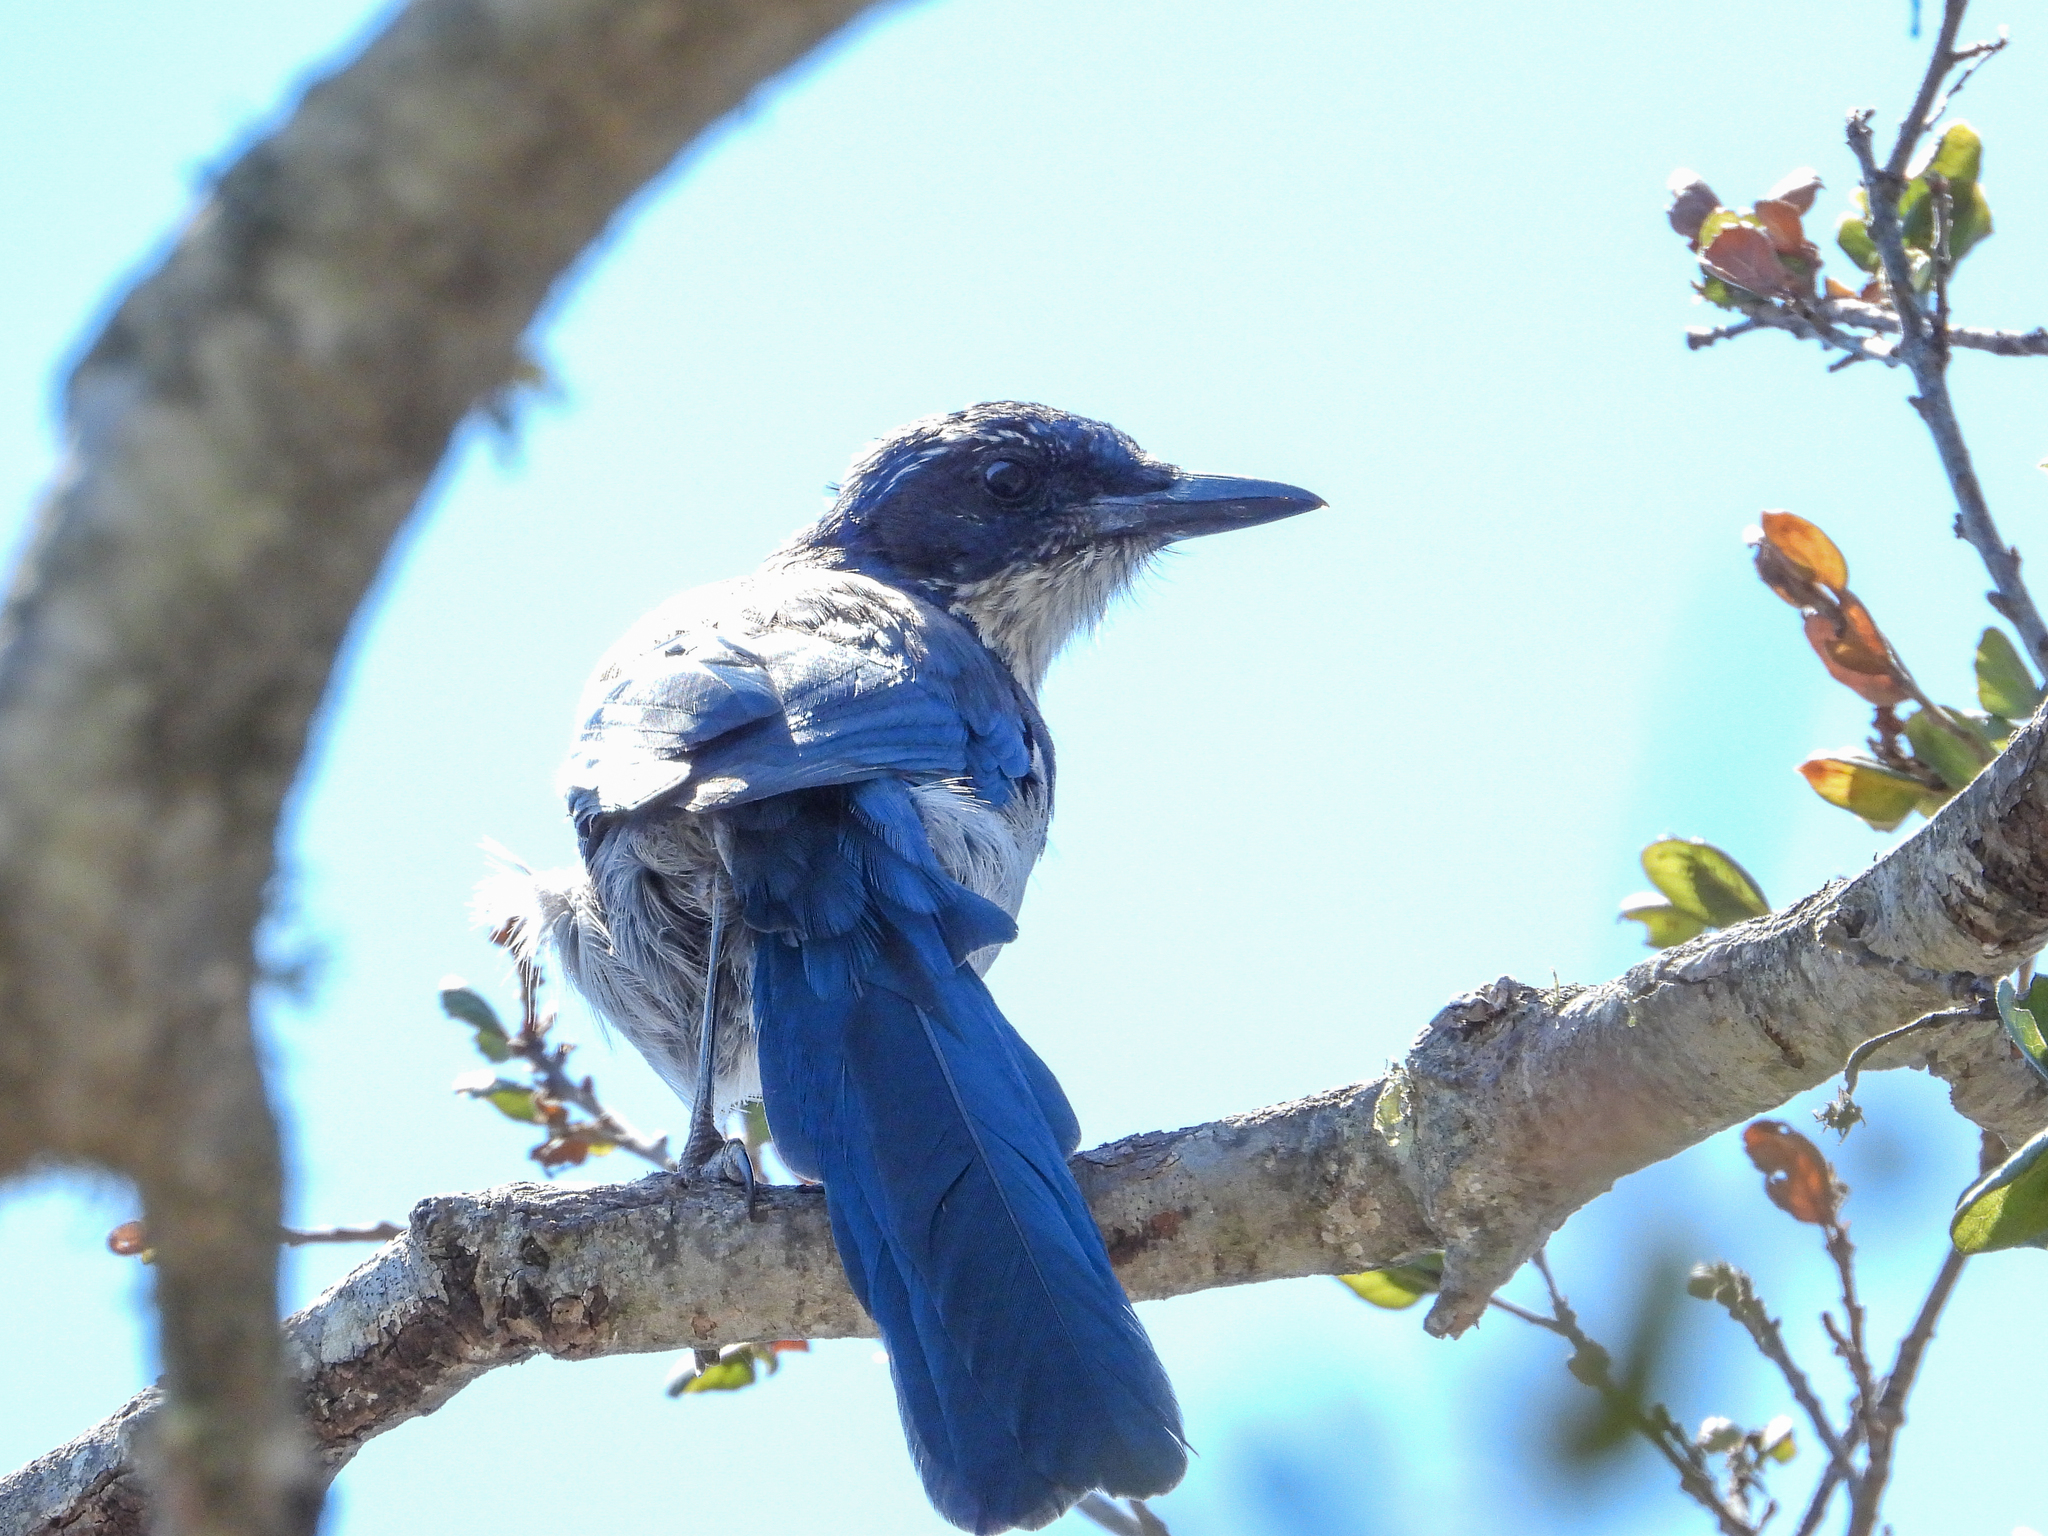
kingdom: Animalia
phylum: Chordata
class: Aves
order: Passeriformes
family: Corvidae
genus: Aphelocoma
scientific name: Aphelocoma insularis
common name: Island scrub-jay
